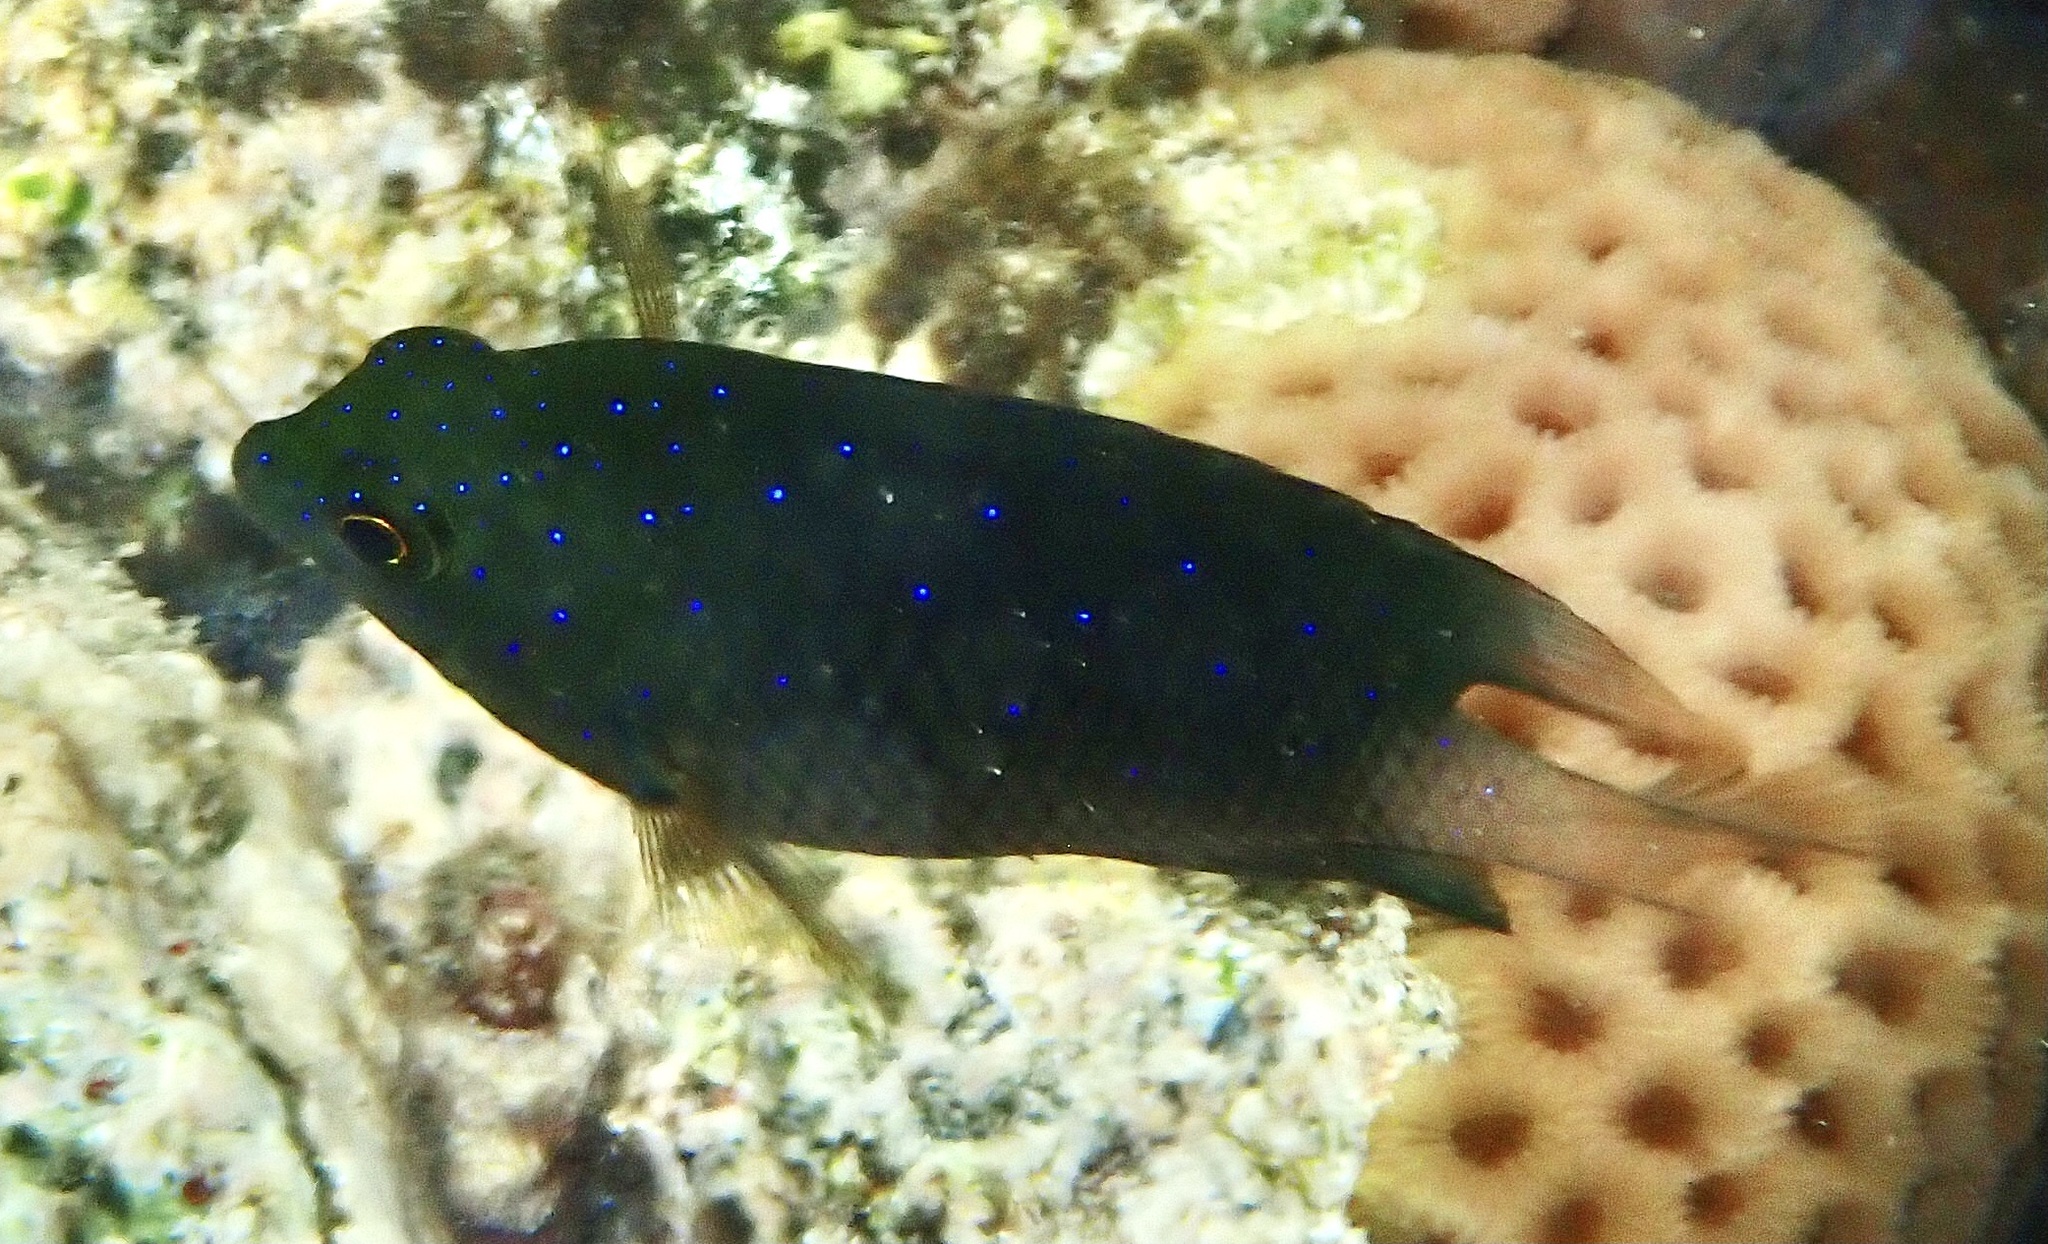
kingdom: Animalia
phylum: Chordata
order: Perciformes
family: Pomacentridae
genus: Plectroglyphidodon
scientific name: Plectroglyphidodon lacrymatus
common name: Jewel damsel
